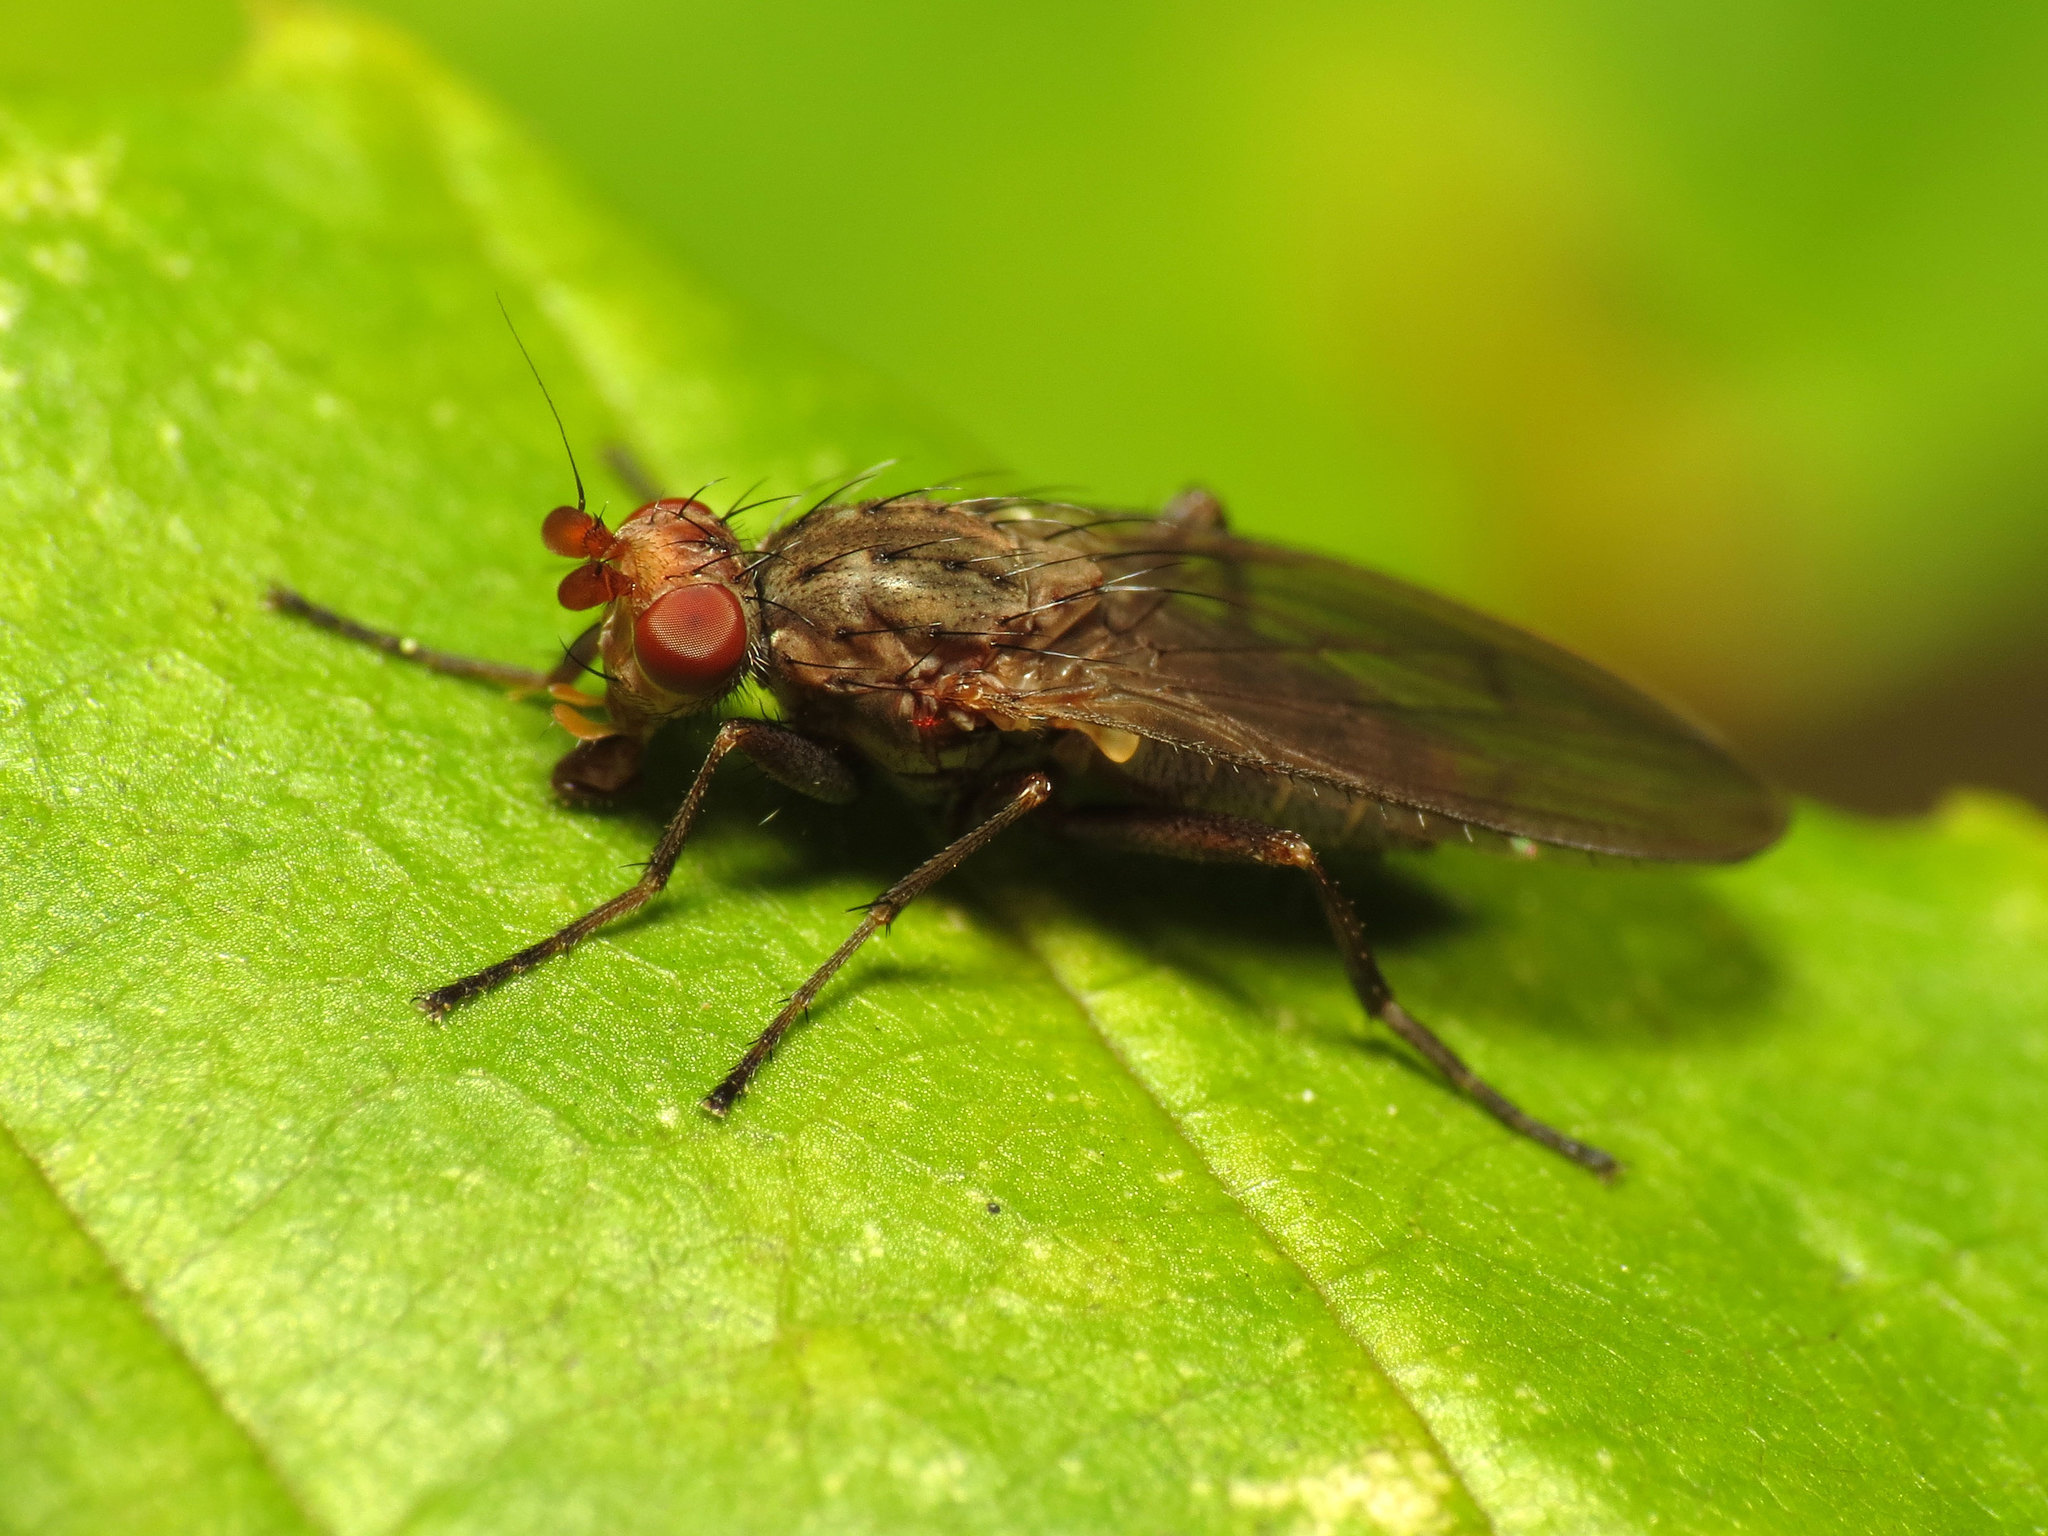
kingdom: Animalia
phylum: Arthropoda
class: Insecta
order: Diptera
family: Heleomyzidae
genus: Amoebaleria
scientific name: Amoebaleria defessa
